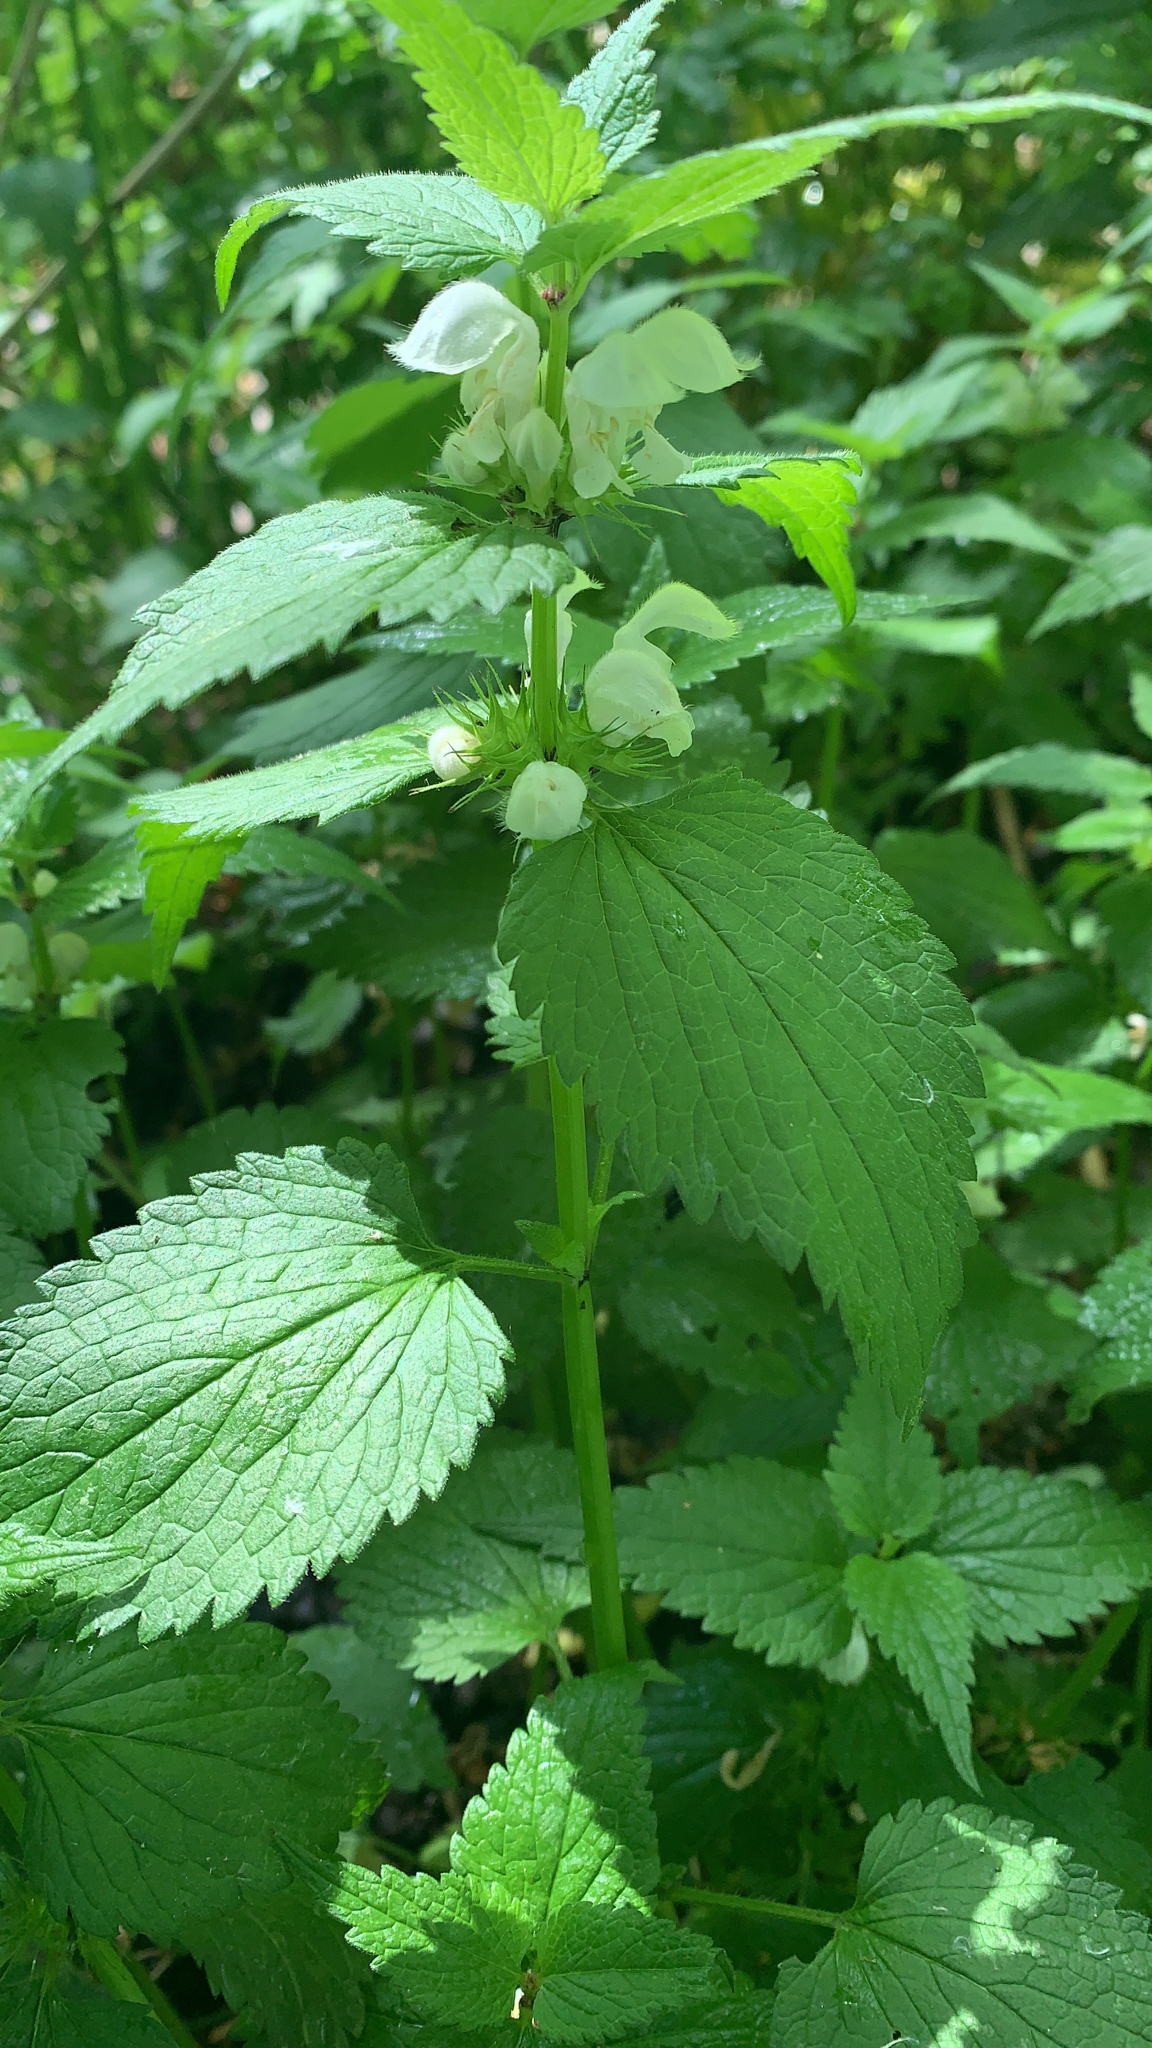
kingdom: Plantae
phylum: Tracheophyta
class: Magnoliopsida
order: Lamiales
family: Lamiaceae
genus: Lamium
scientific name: Lamium album
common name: White dead-nettle
